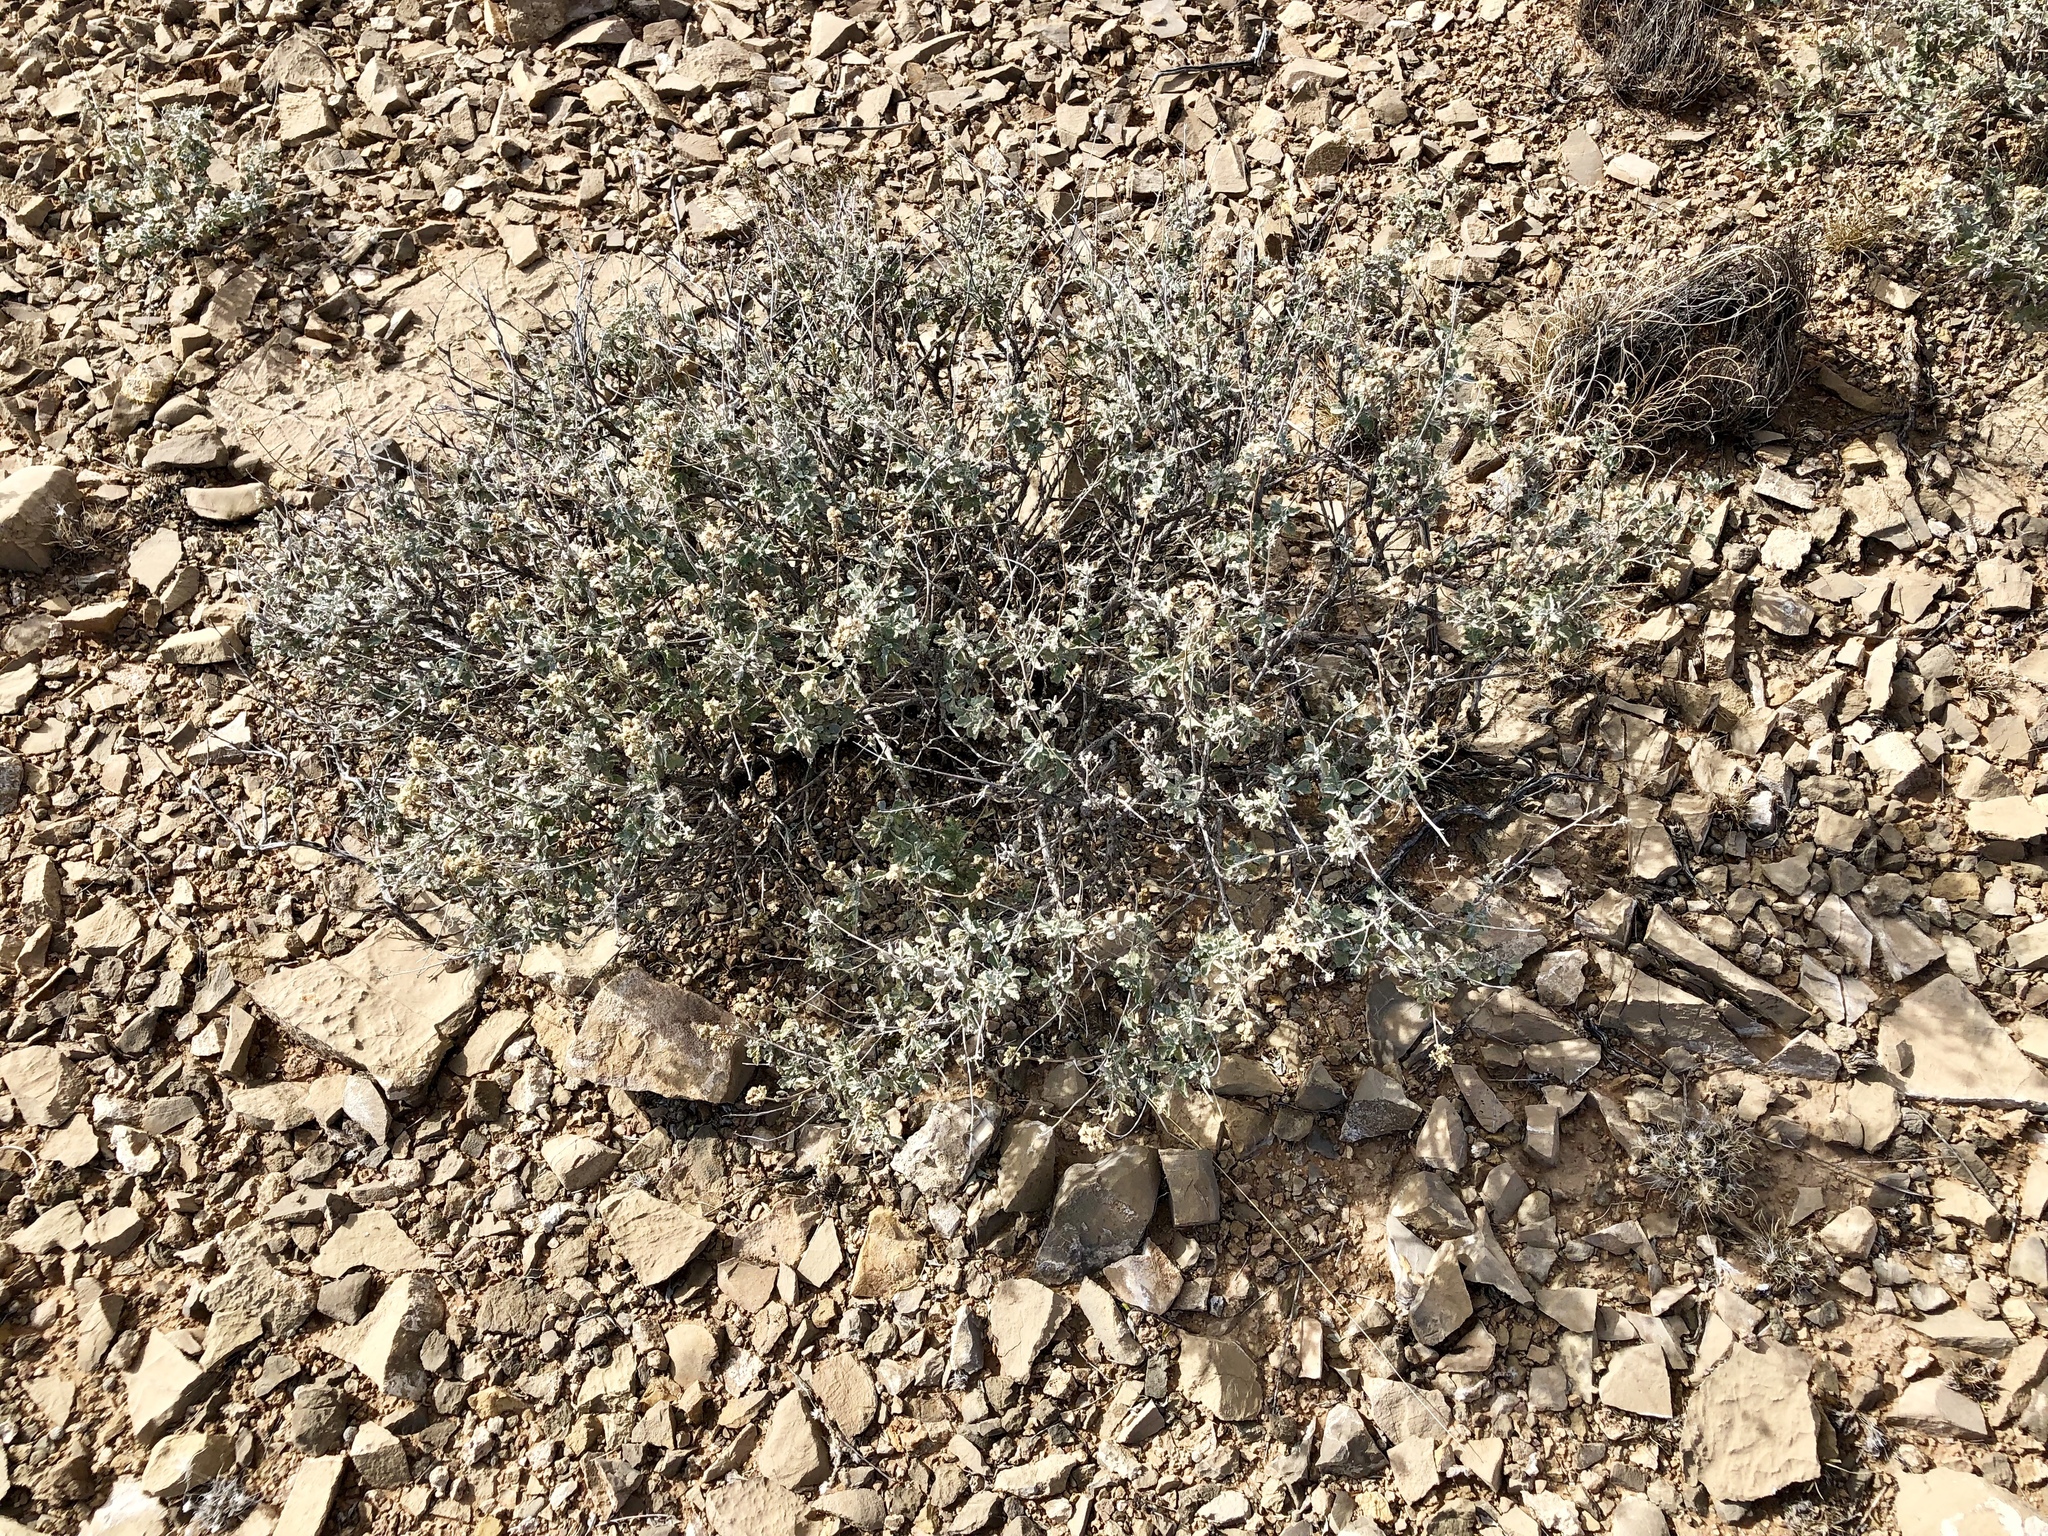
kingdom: Plantae
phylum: Tracheophyta
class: Magnoliopsida
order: Asterales
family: Asteraceae
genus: Parthenium
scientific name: Parthenium incanum
